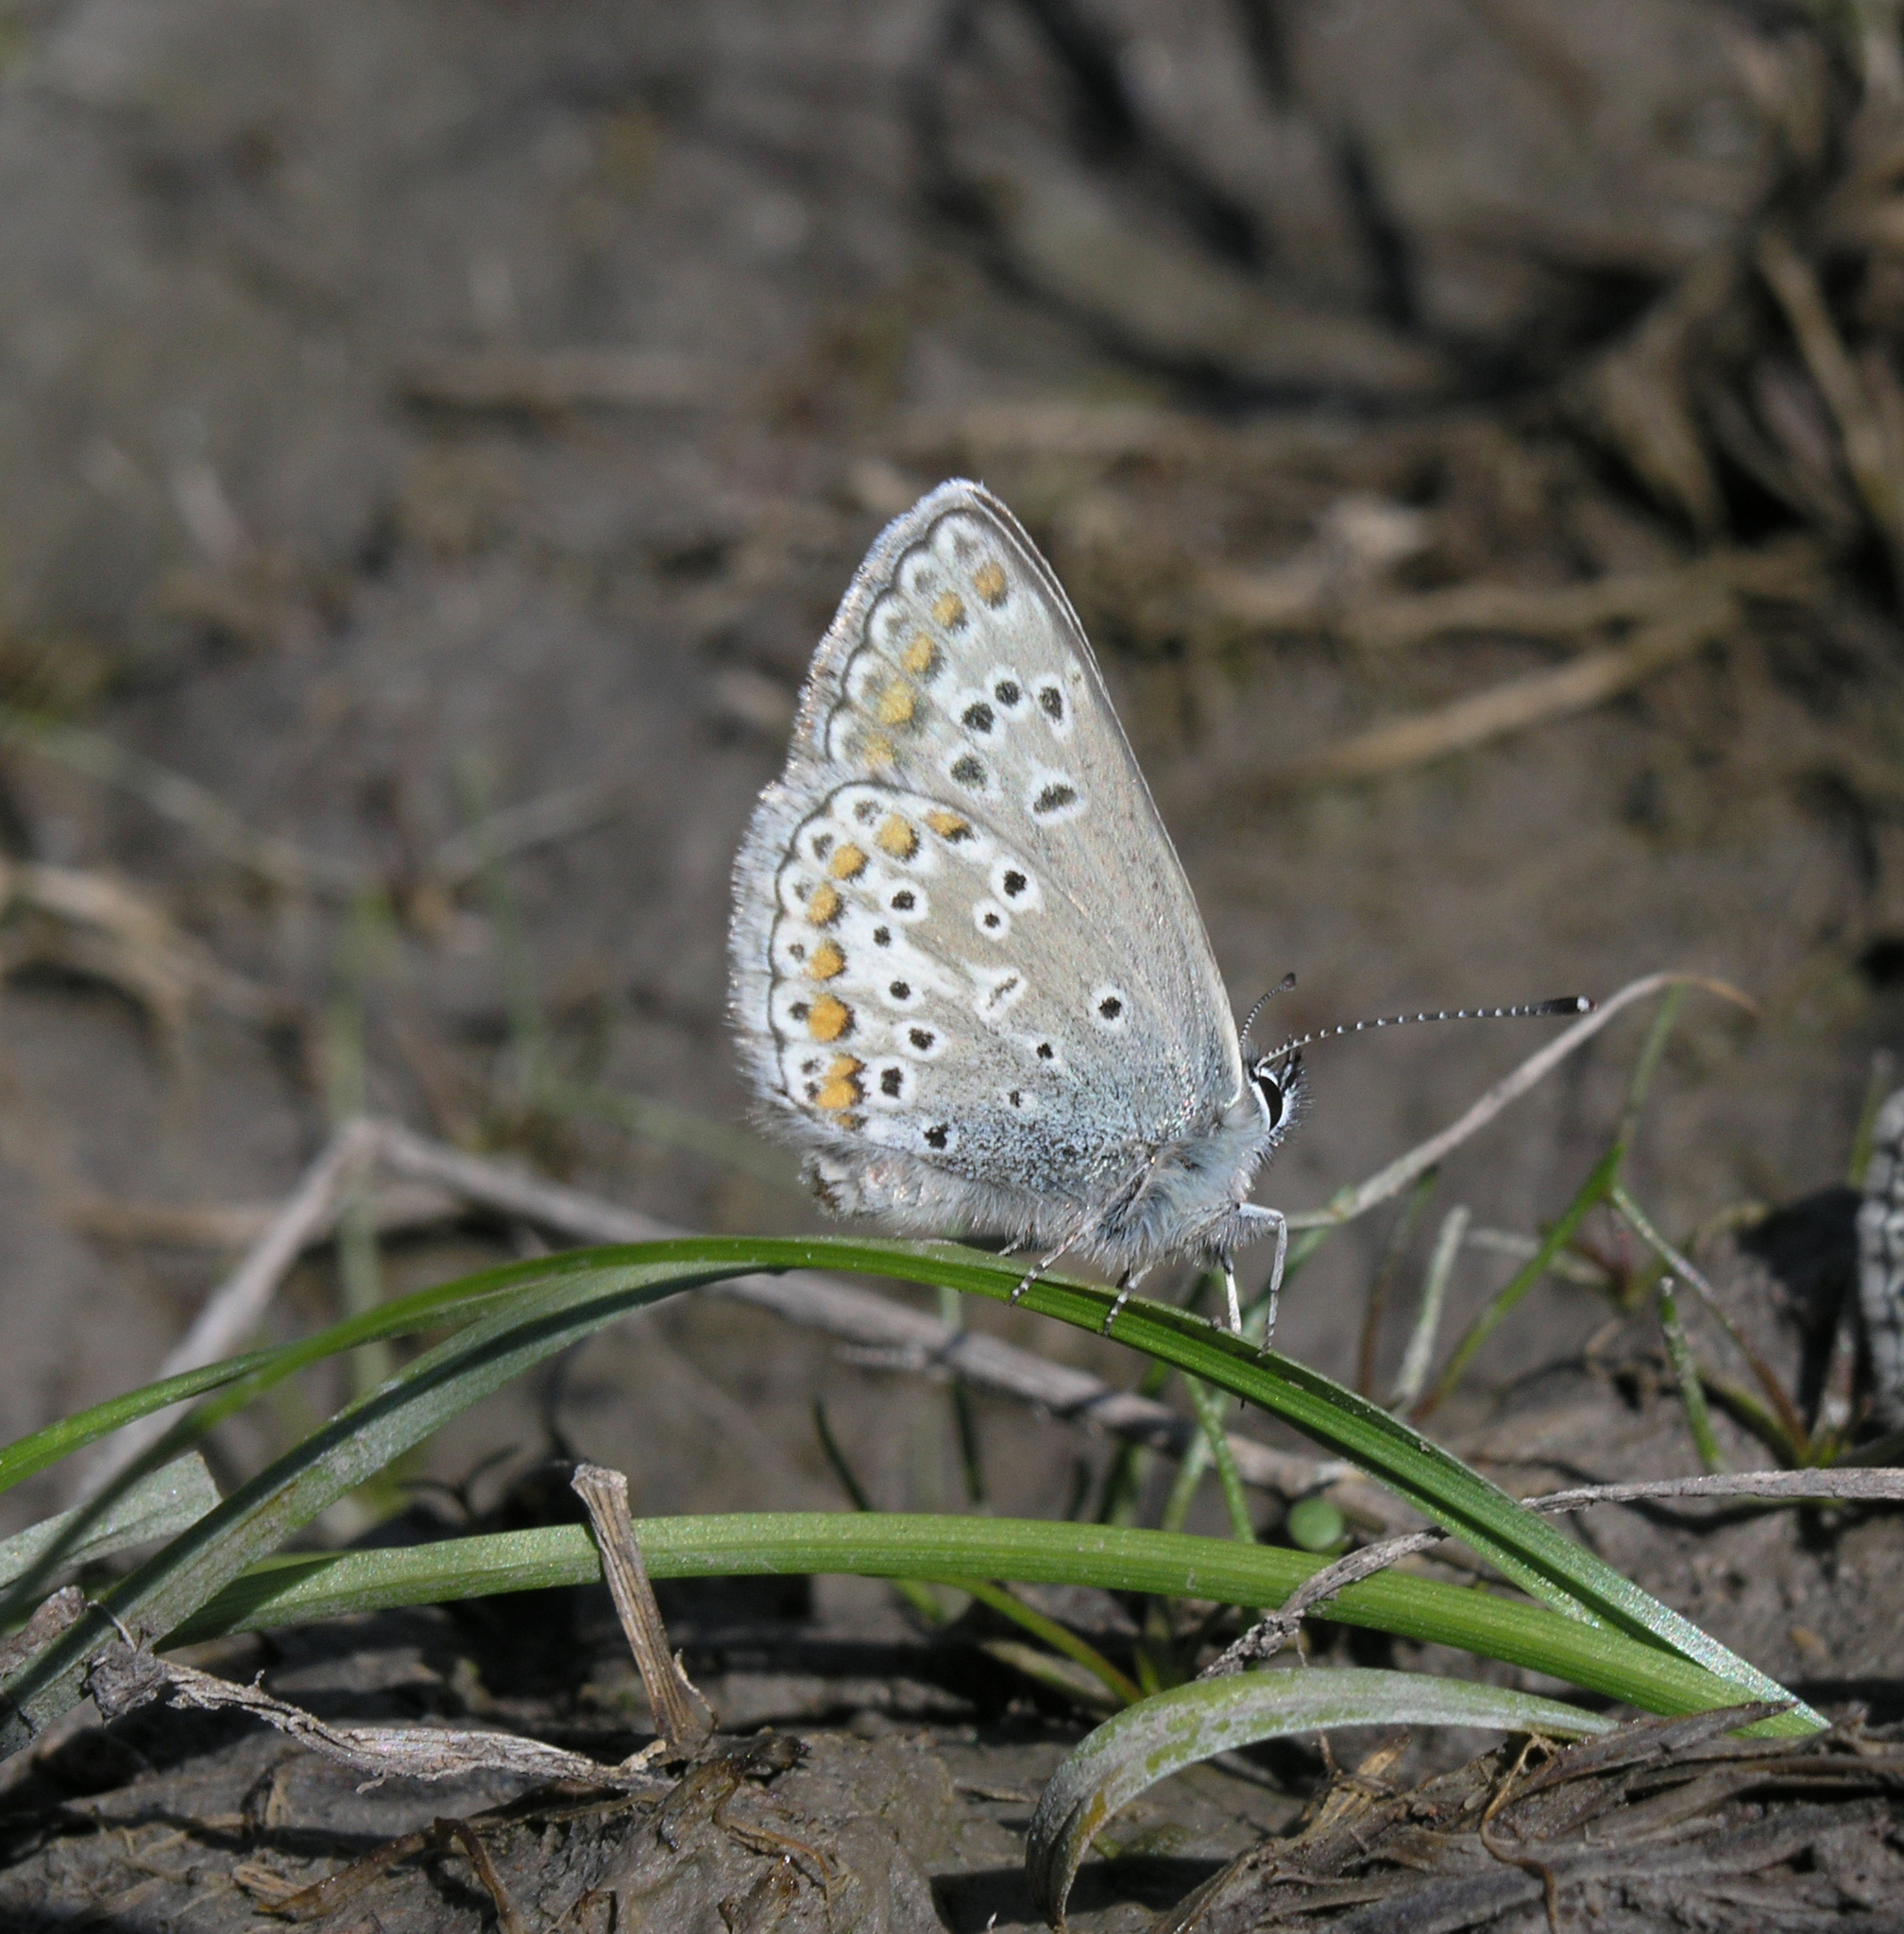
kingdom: Animalia
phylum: Arthropoda
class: Insecta
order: Lepidoptera
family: Lycaenidae
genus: Aricia
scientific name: Aricia artaxerxes
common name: Northern brown argus
